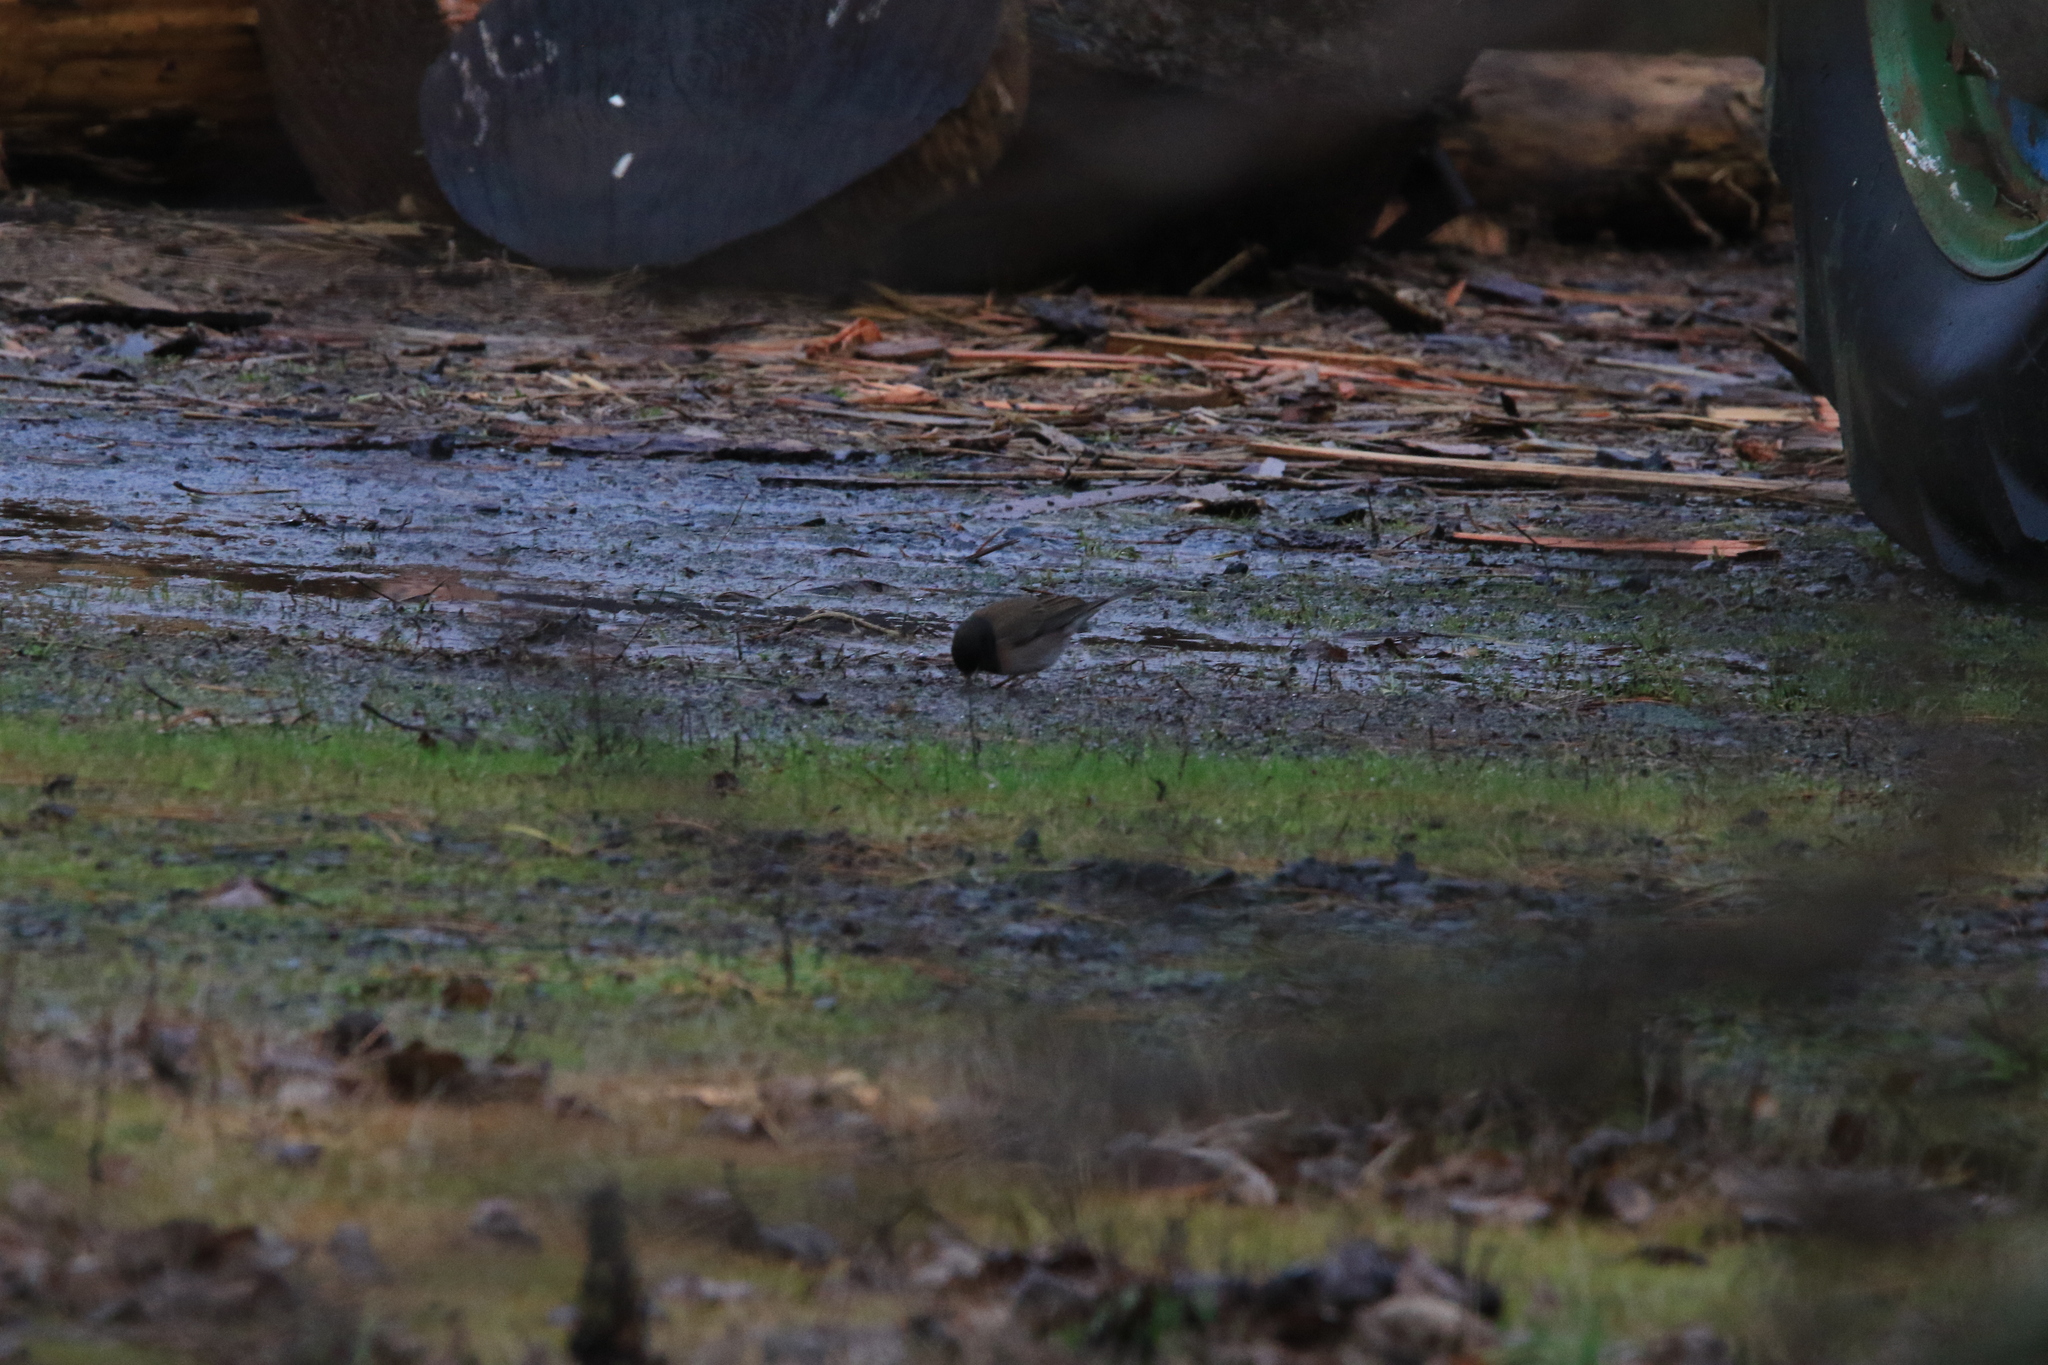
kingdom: Animalia
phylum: Chordata
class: Aves
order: Passeriformes
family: Passerellidae
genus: Junco
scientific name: Junco hyemalis
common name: Dark-eyed junco
